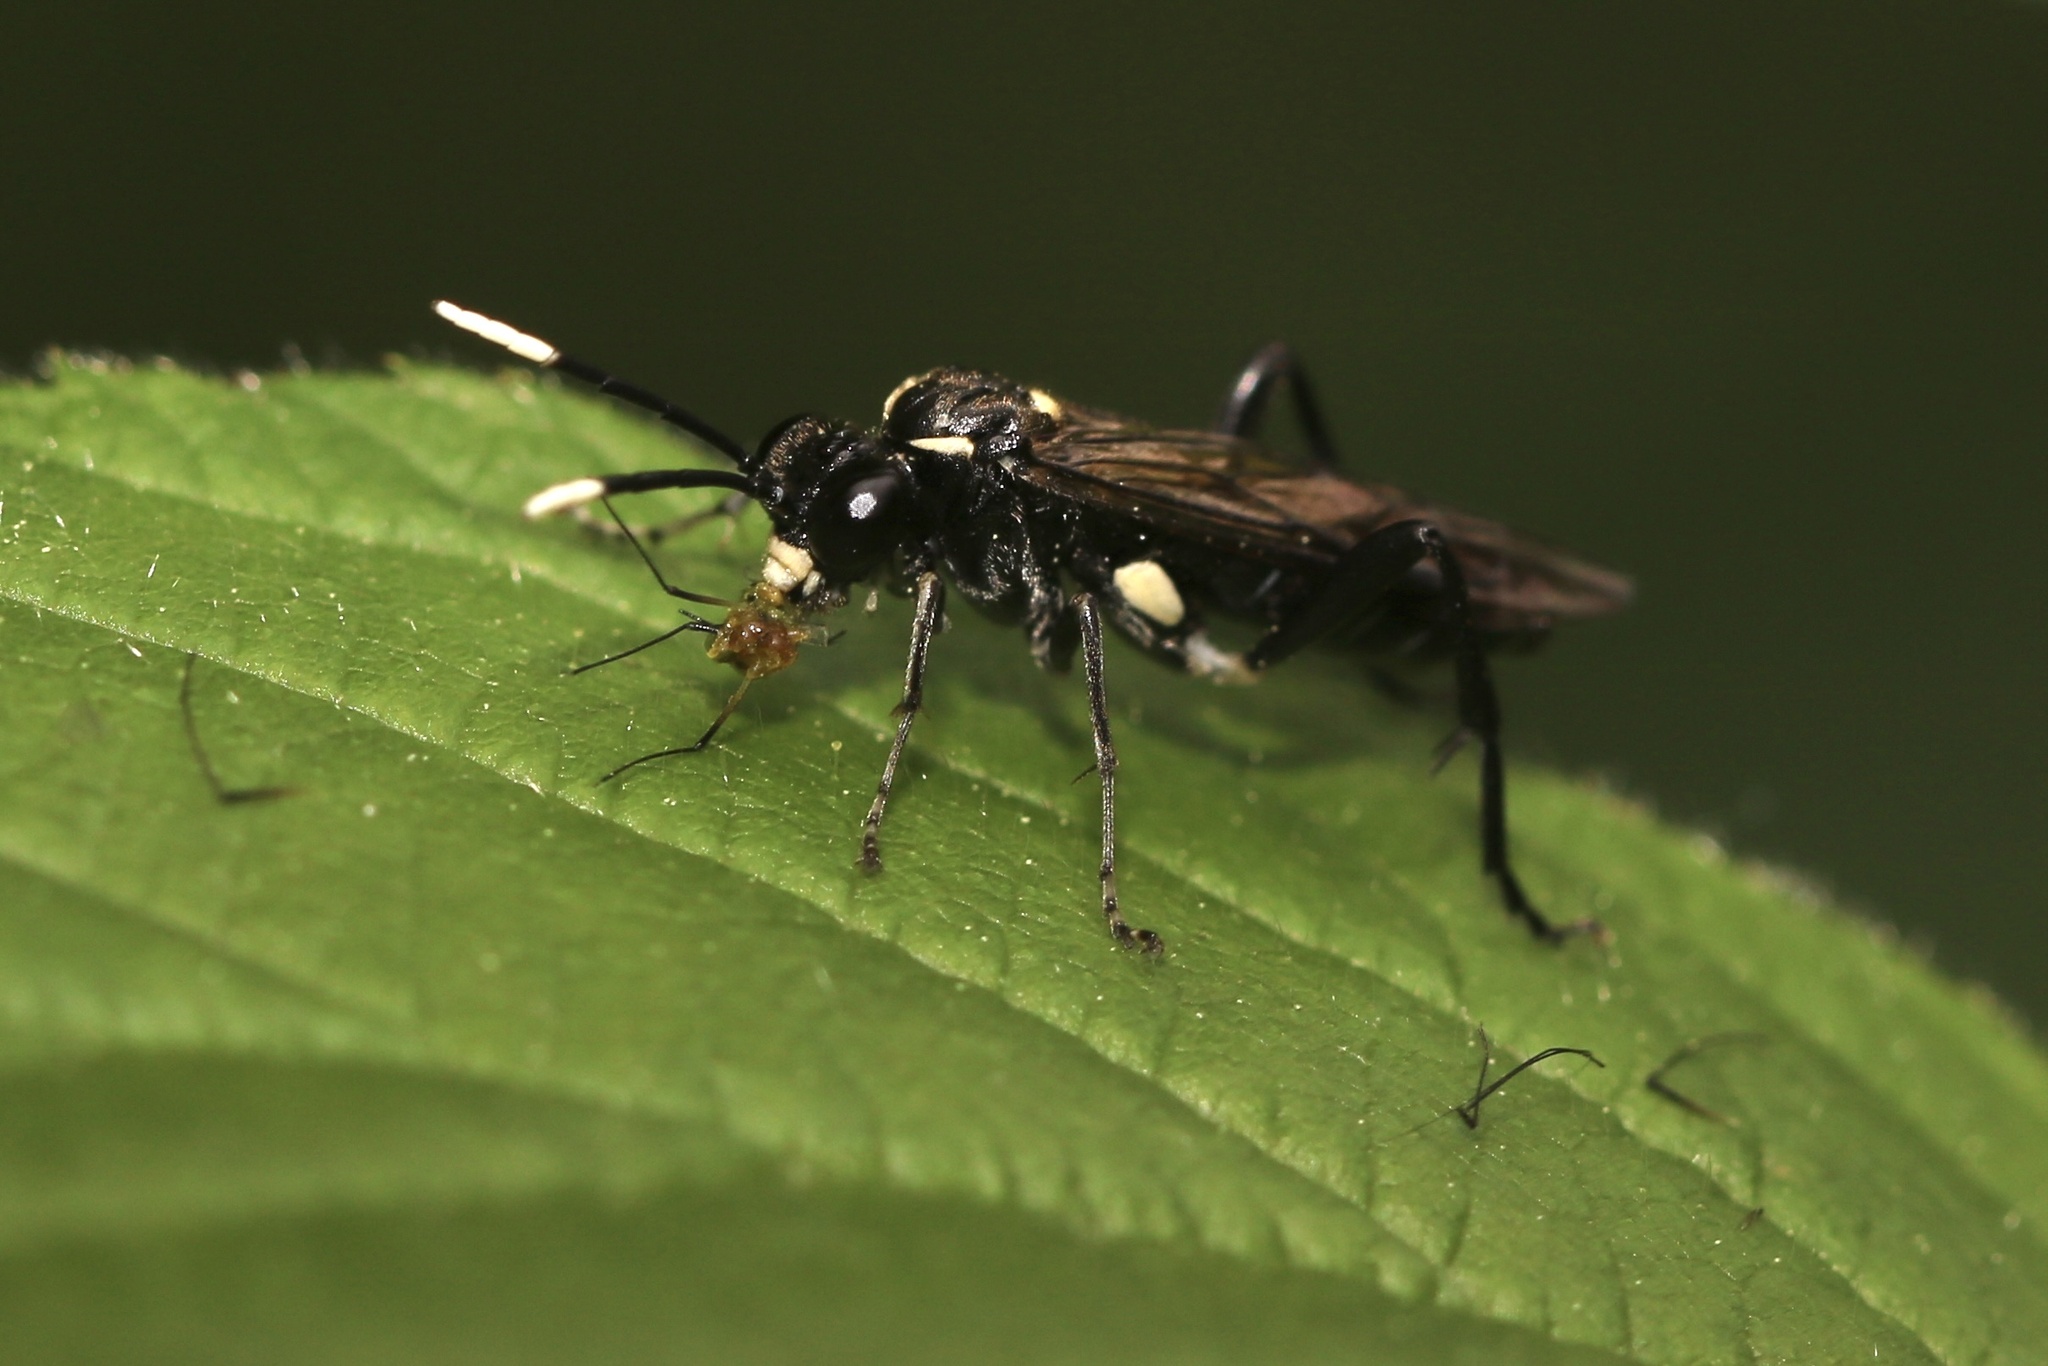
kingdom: Animalia
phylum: Arthropoda
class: Insecta
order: Hymenoptera
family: Tenthredinidae
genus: Macrophya
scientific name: Macrophya
